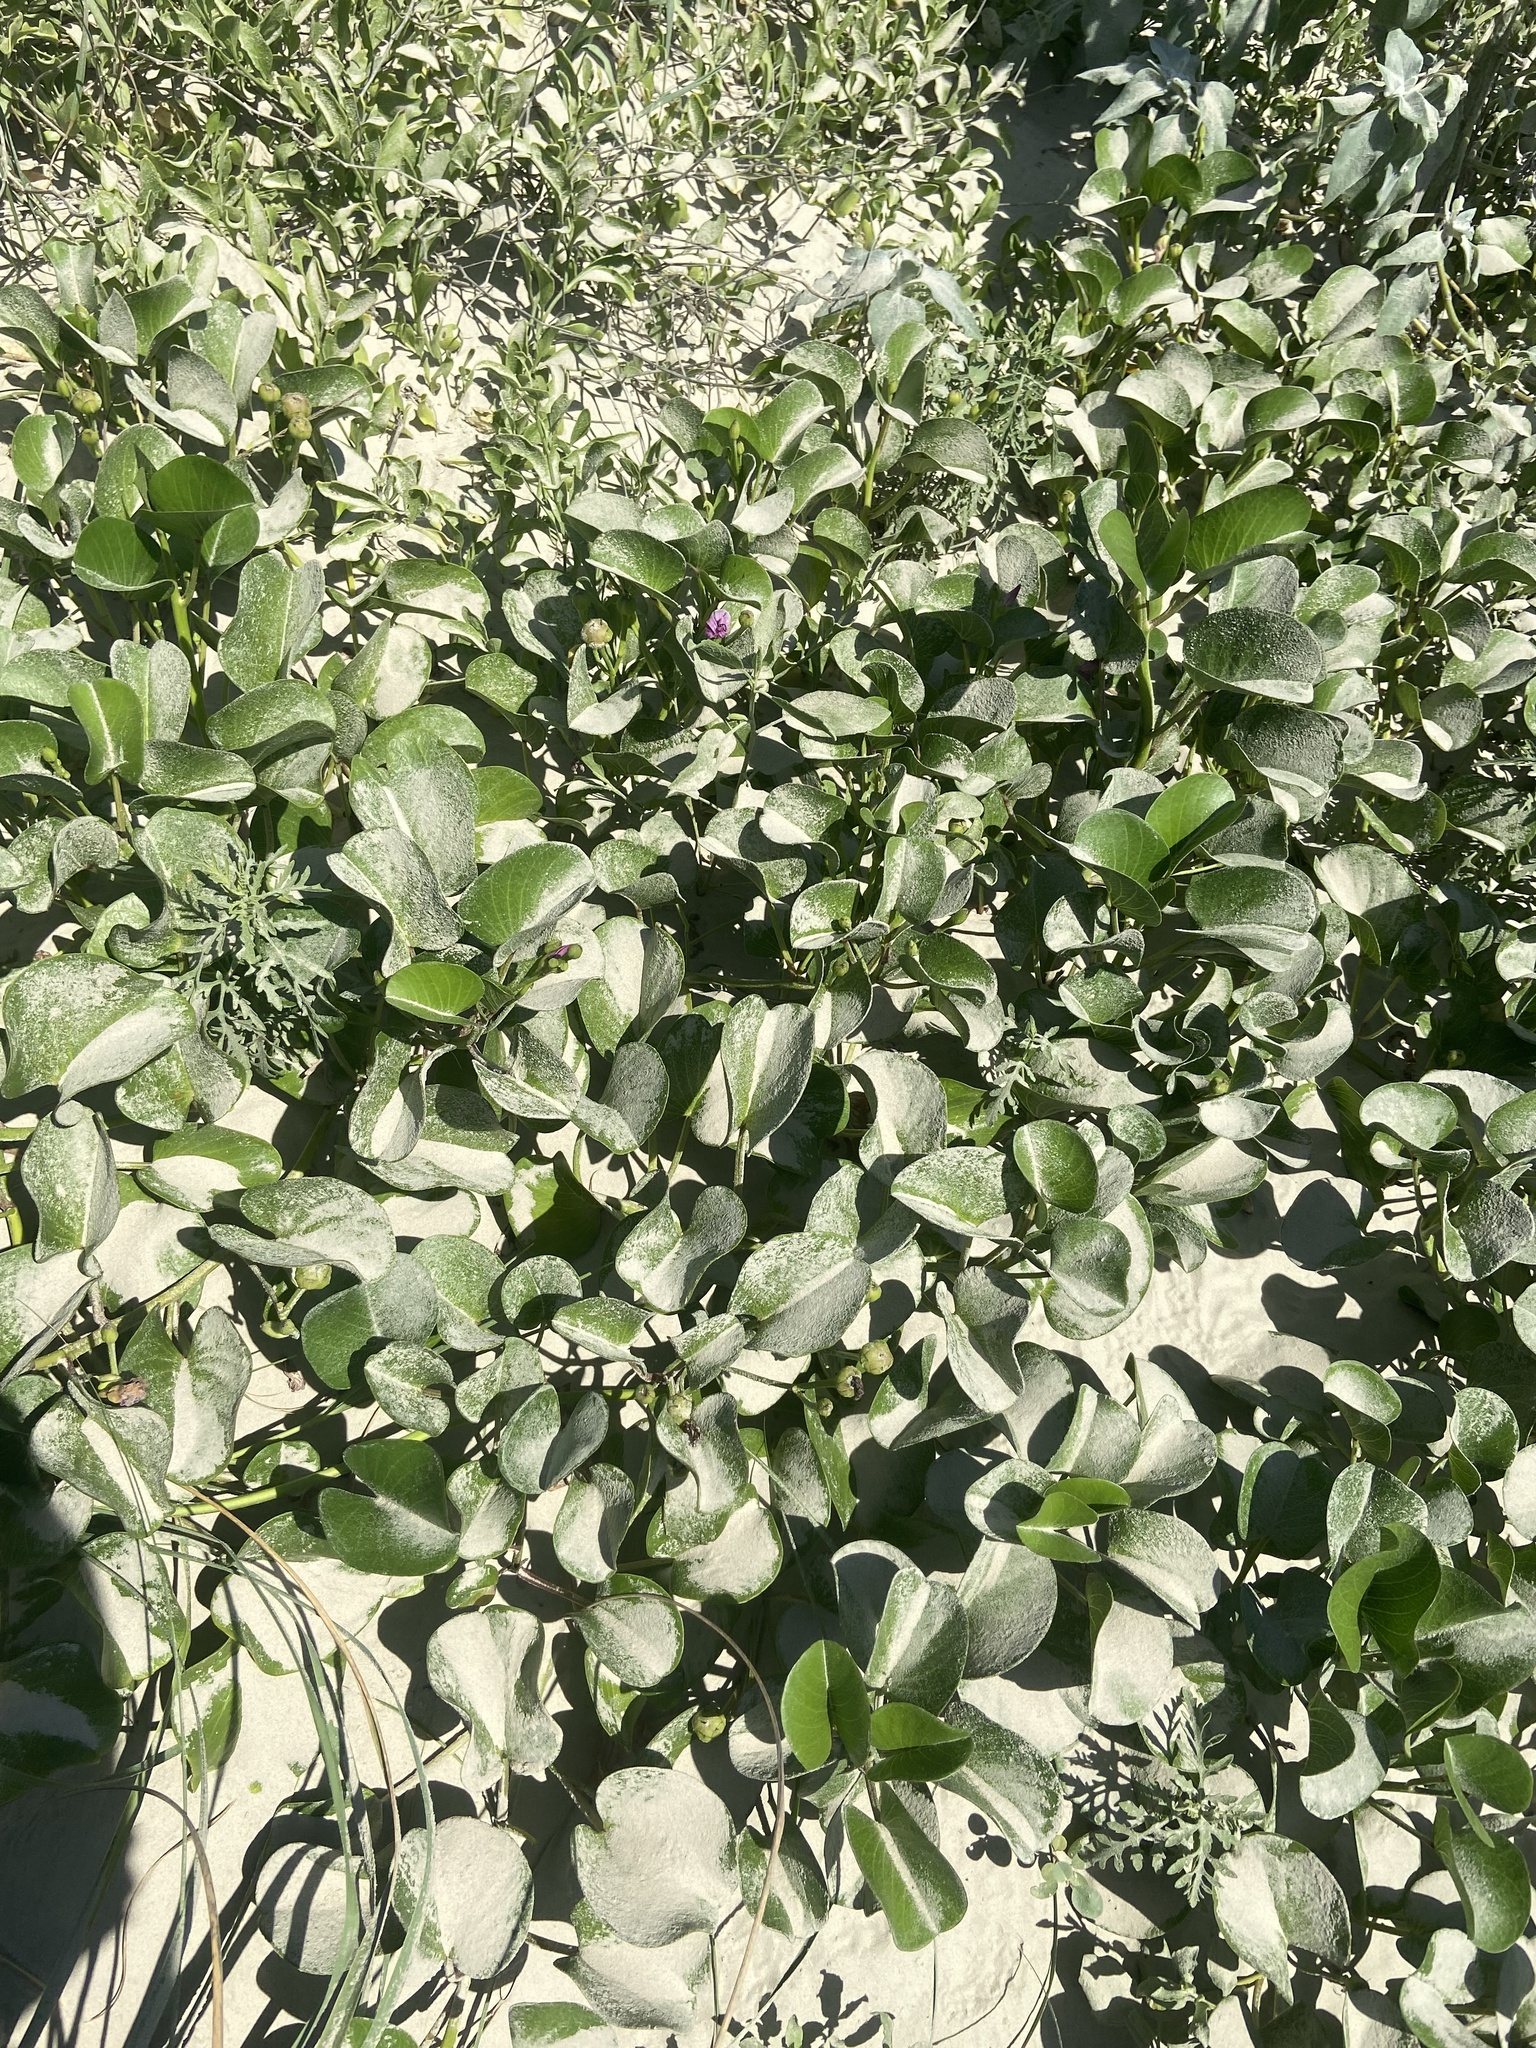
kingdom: Plantae
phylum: Tracheophyta
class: Magnoliopsida
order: Solanales
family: Convolvulaceae
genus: Ipomoea
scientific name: Ipomoea pes-caprae
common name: Beach morning glory
